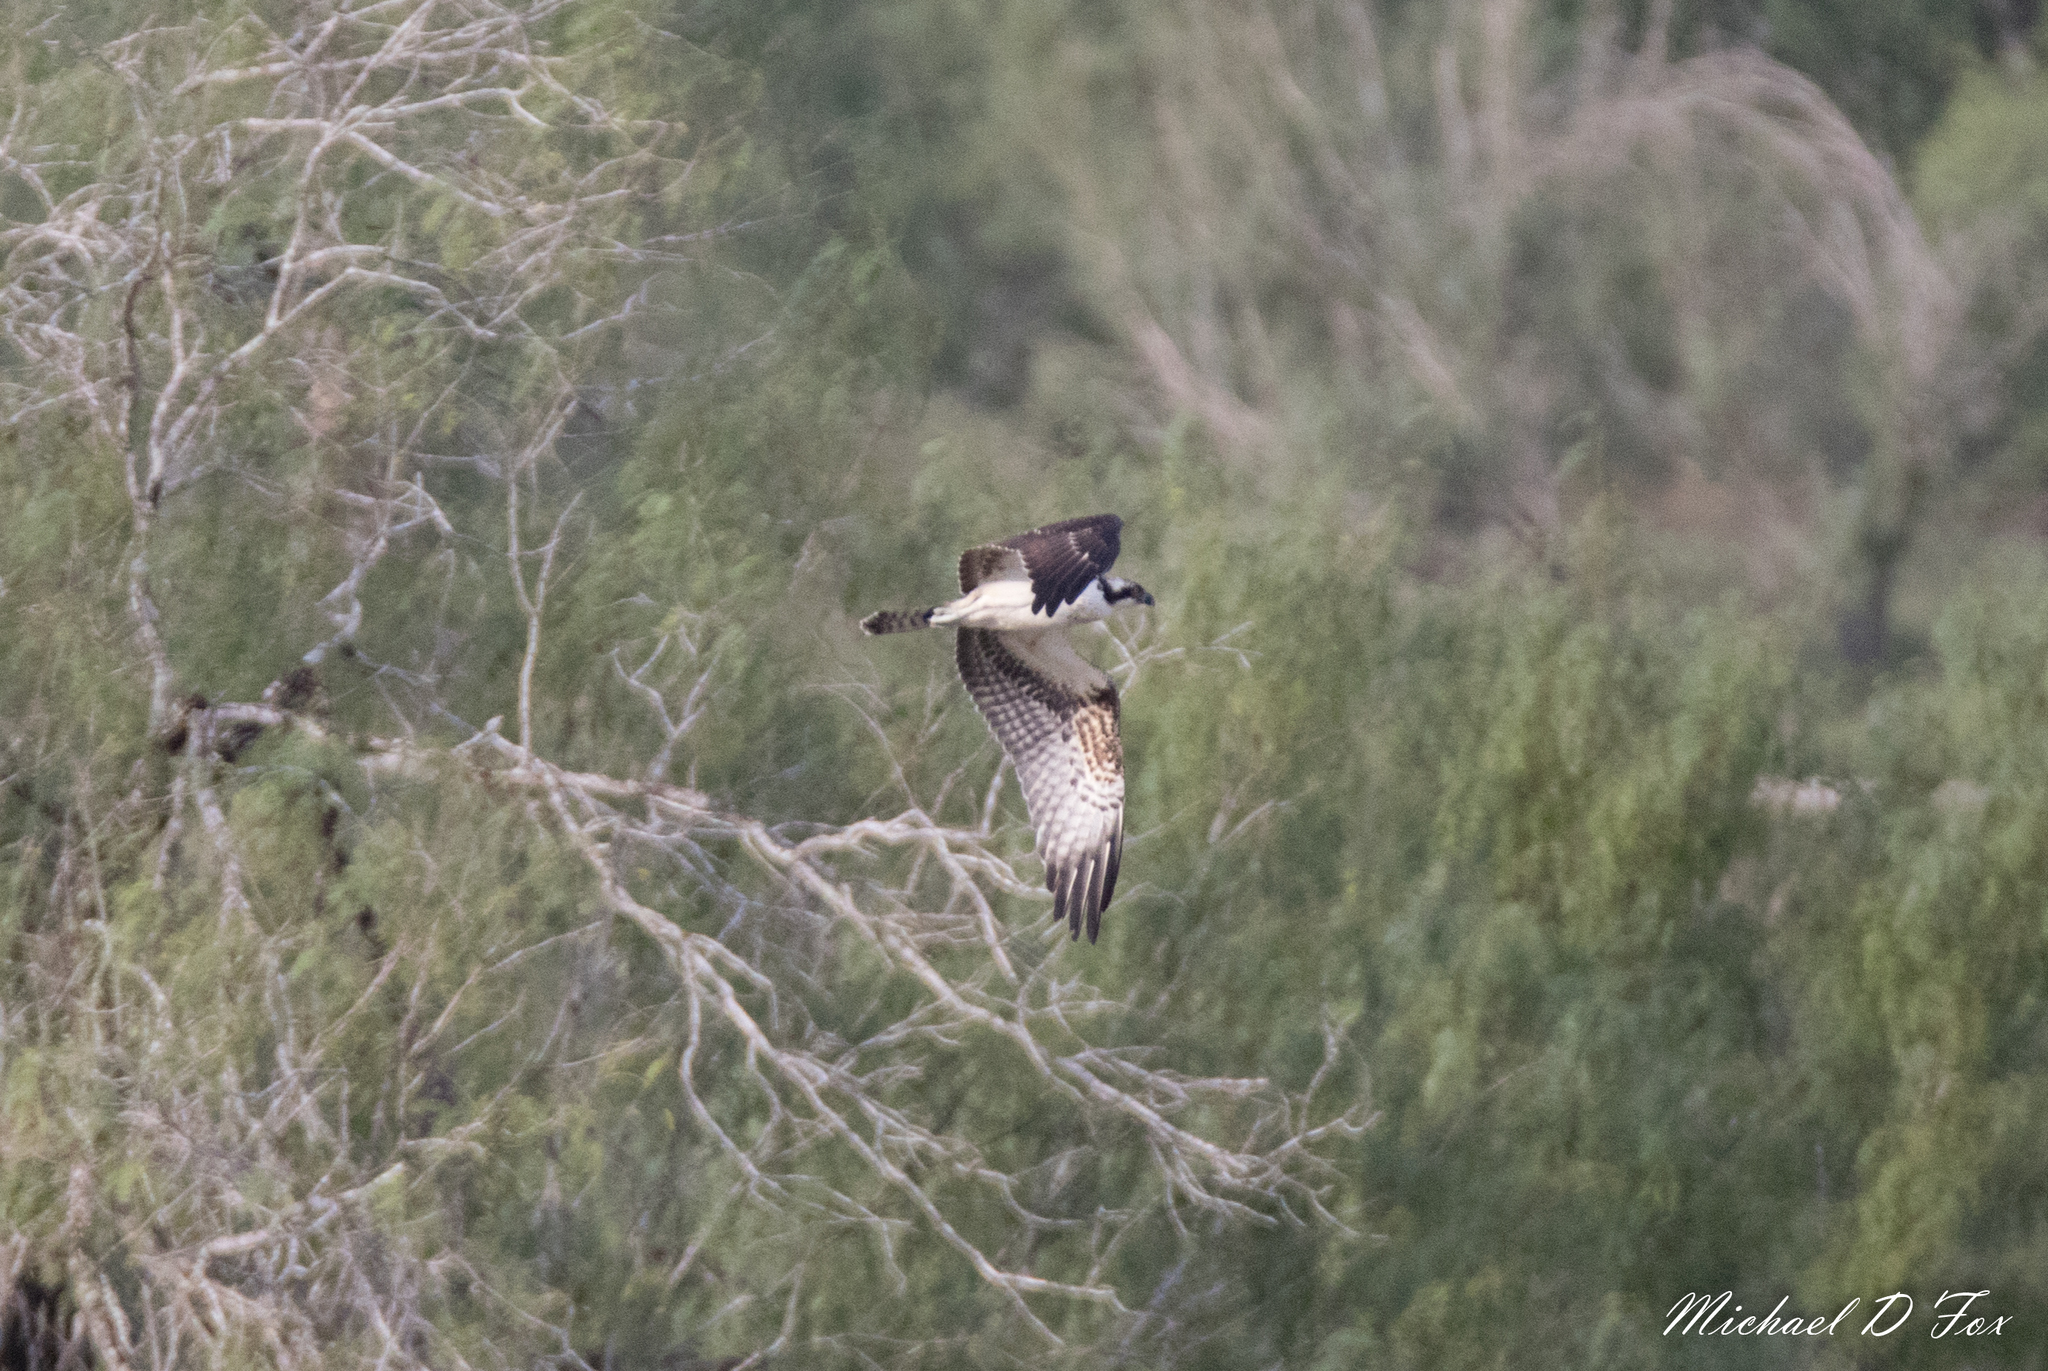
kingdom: Animalia
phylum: Chordata
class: Aves
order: Accipitriformes
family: Pandionidae
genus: Pandion
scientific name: Pandion haliaetus
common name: Osprey
